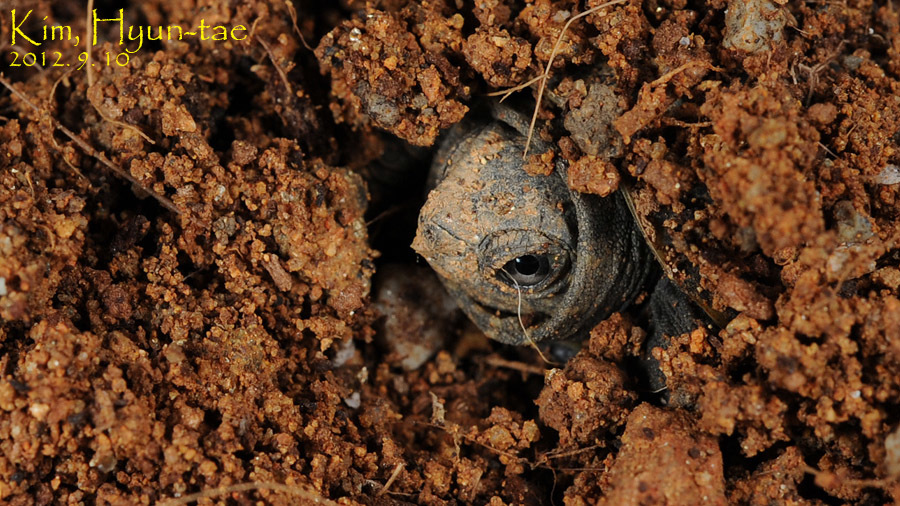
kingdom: Animalia
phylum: Chordata
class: Testudines
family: Geoemydidae
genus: Mauremys
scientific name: Mauremys reevesii
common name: Chinese pond turtle
